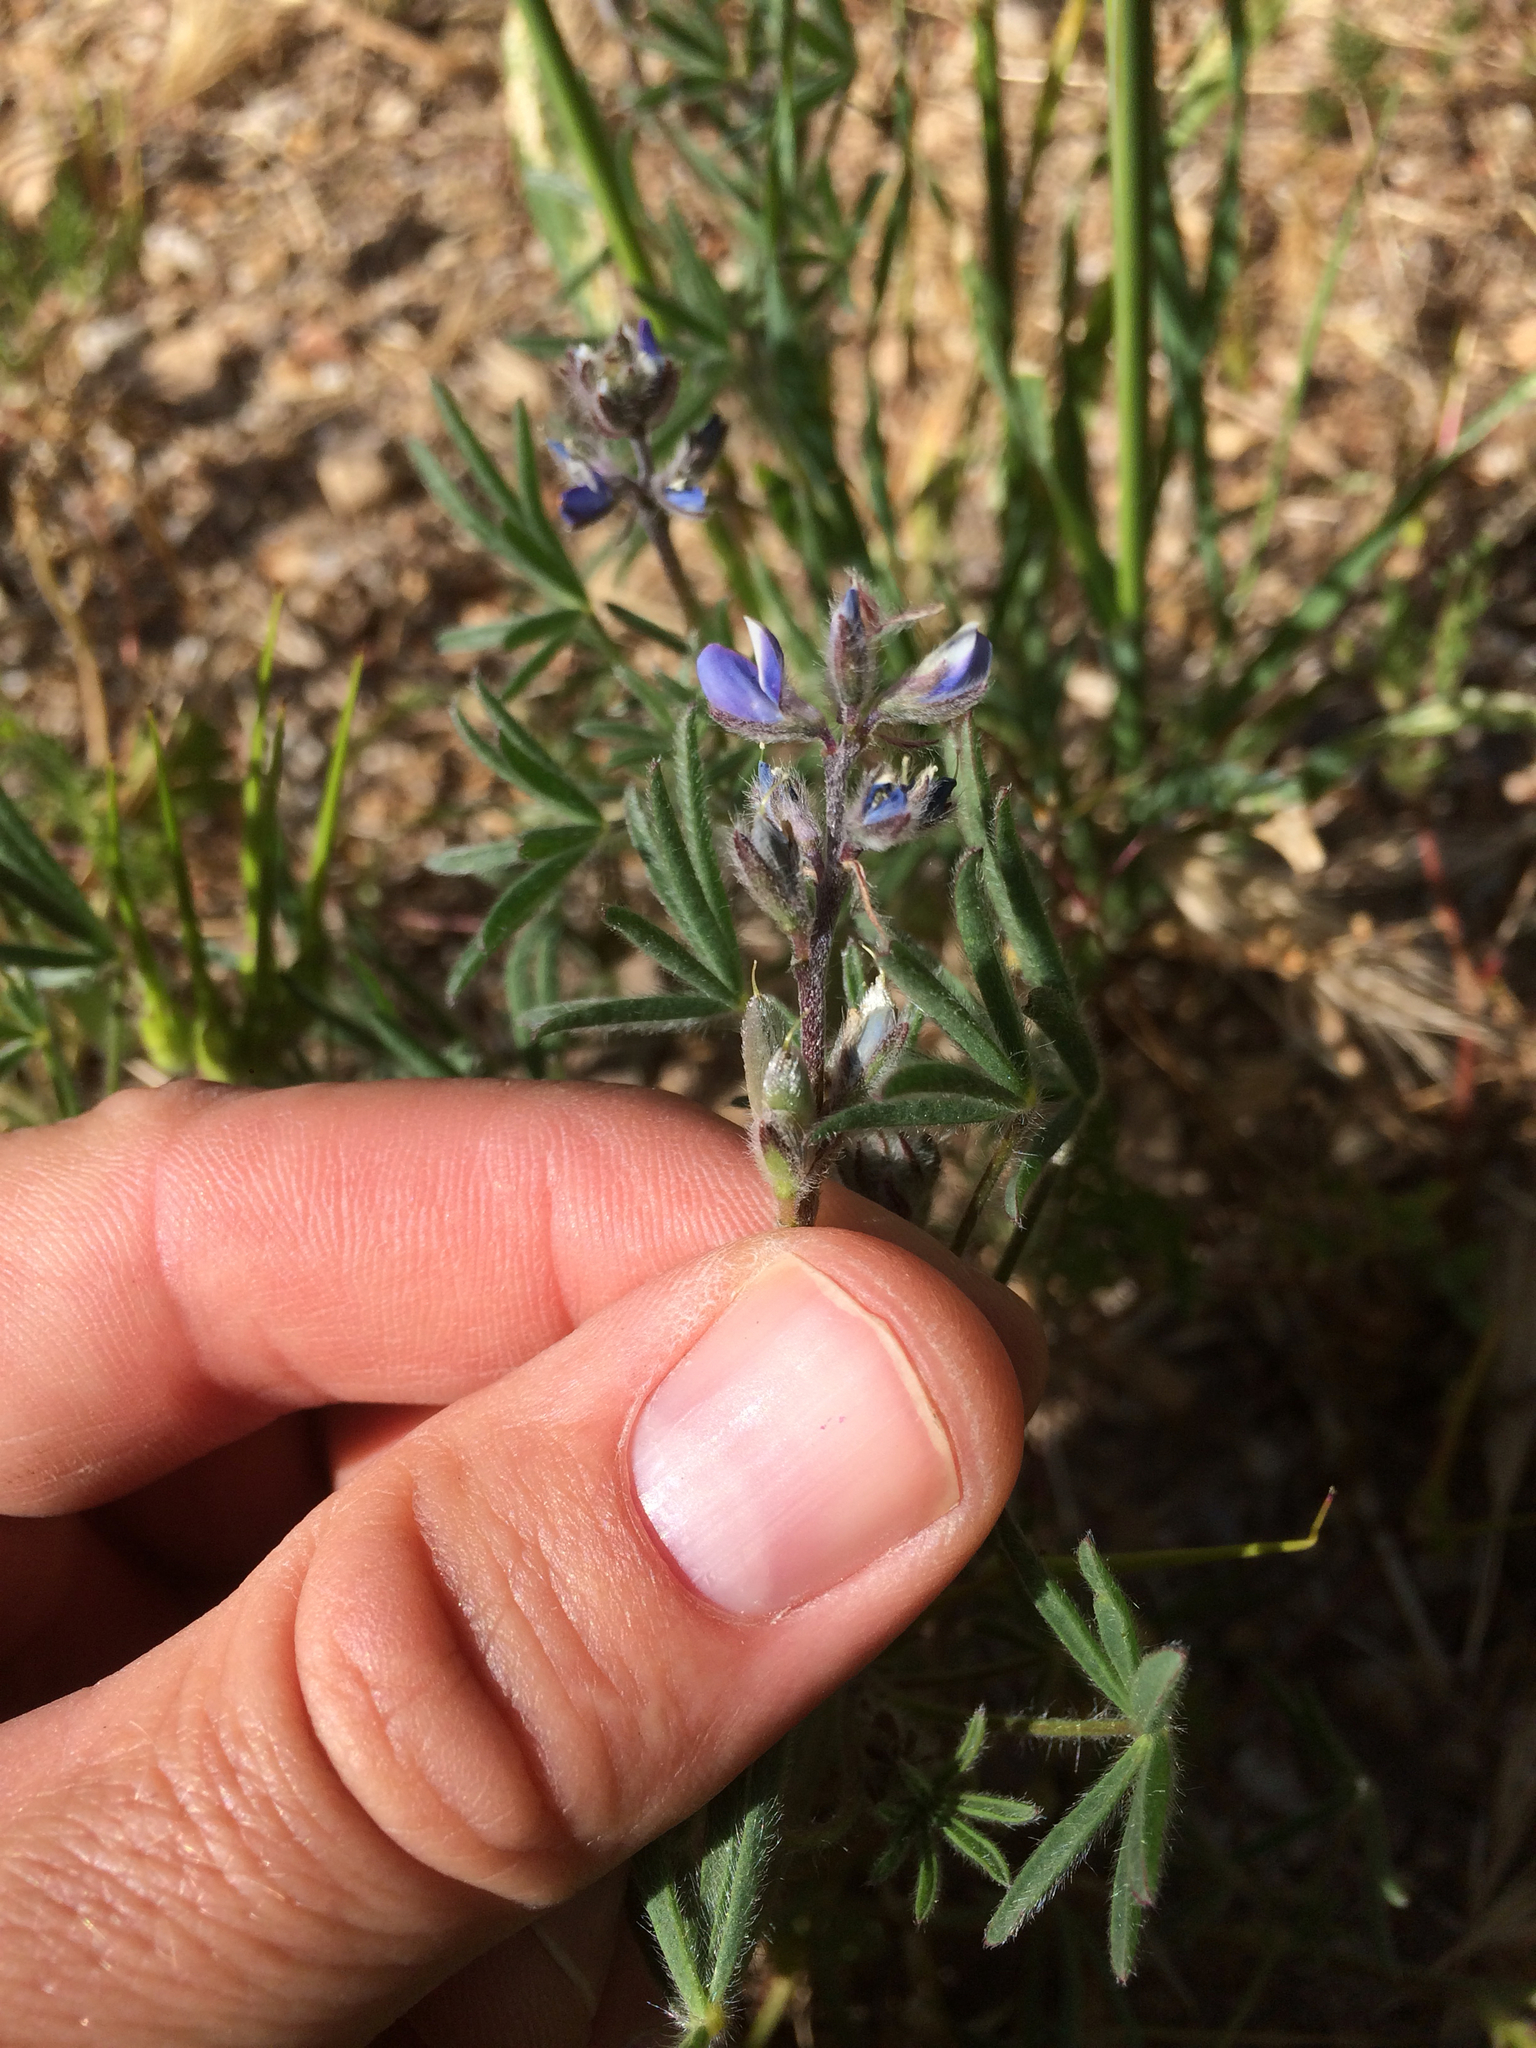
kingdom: Plantae
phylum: Tracheophyta
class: Magnoliopsida
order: Fabales
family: Fabaceae
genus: Lupinus
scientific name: Lupinus bicolor
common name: Miniature lupine
